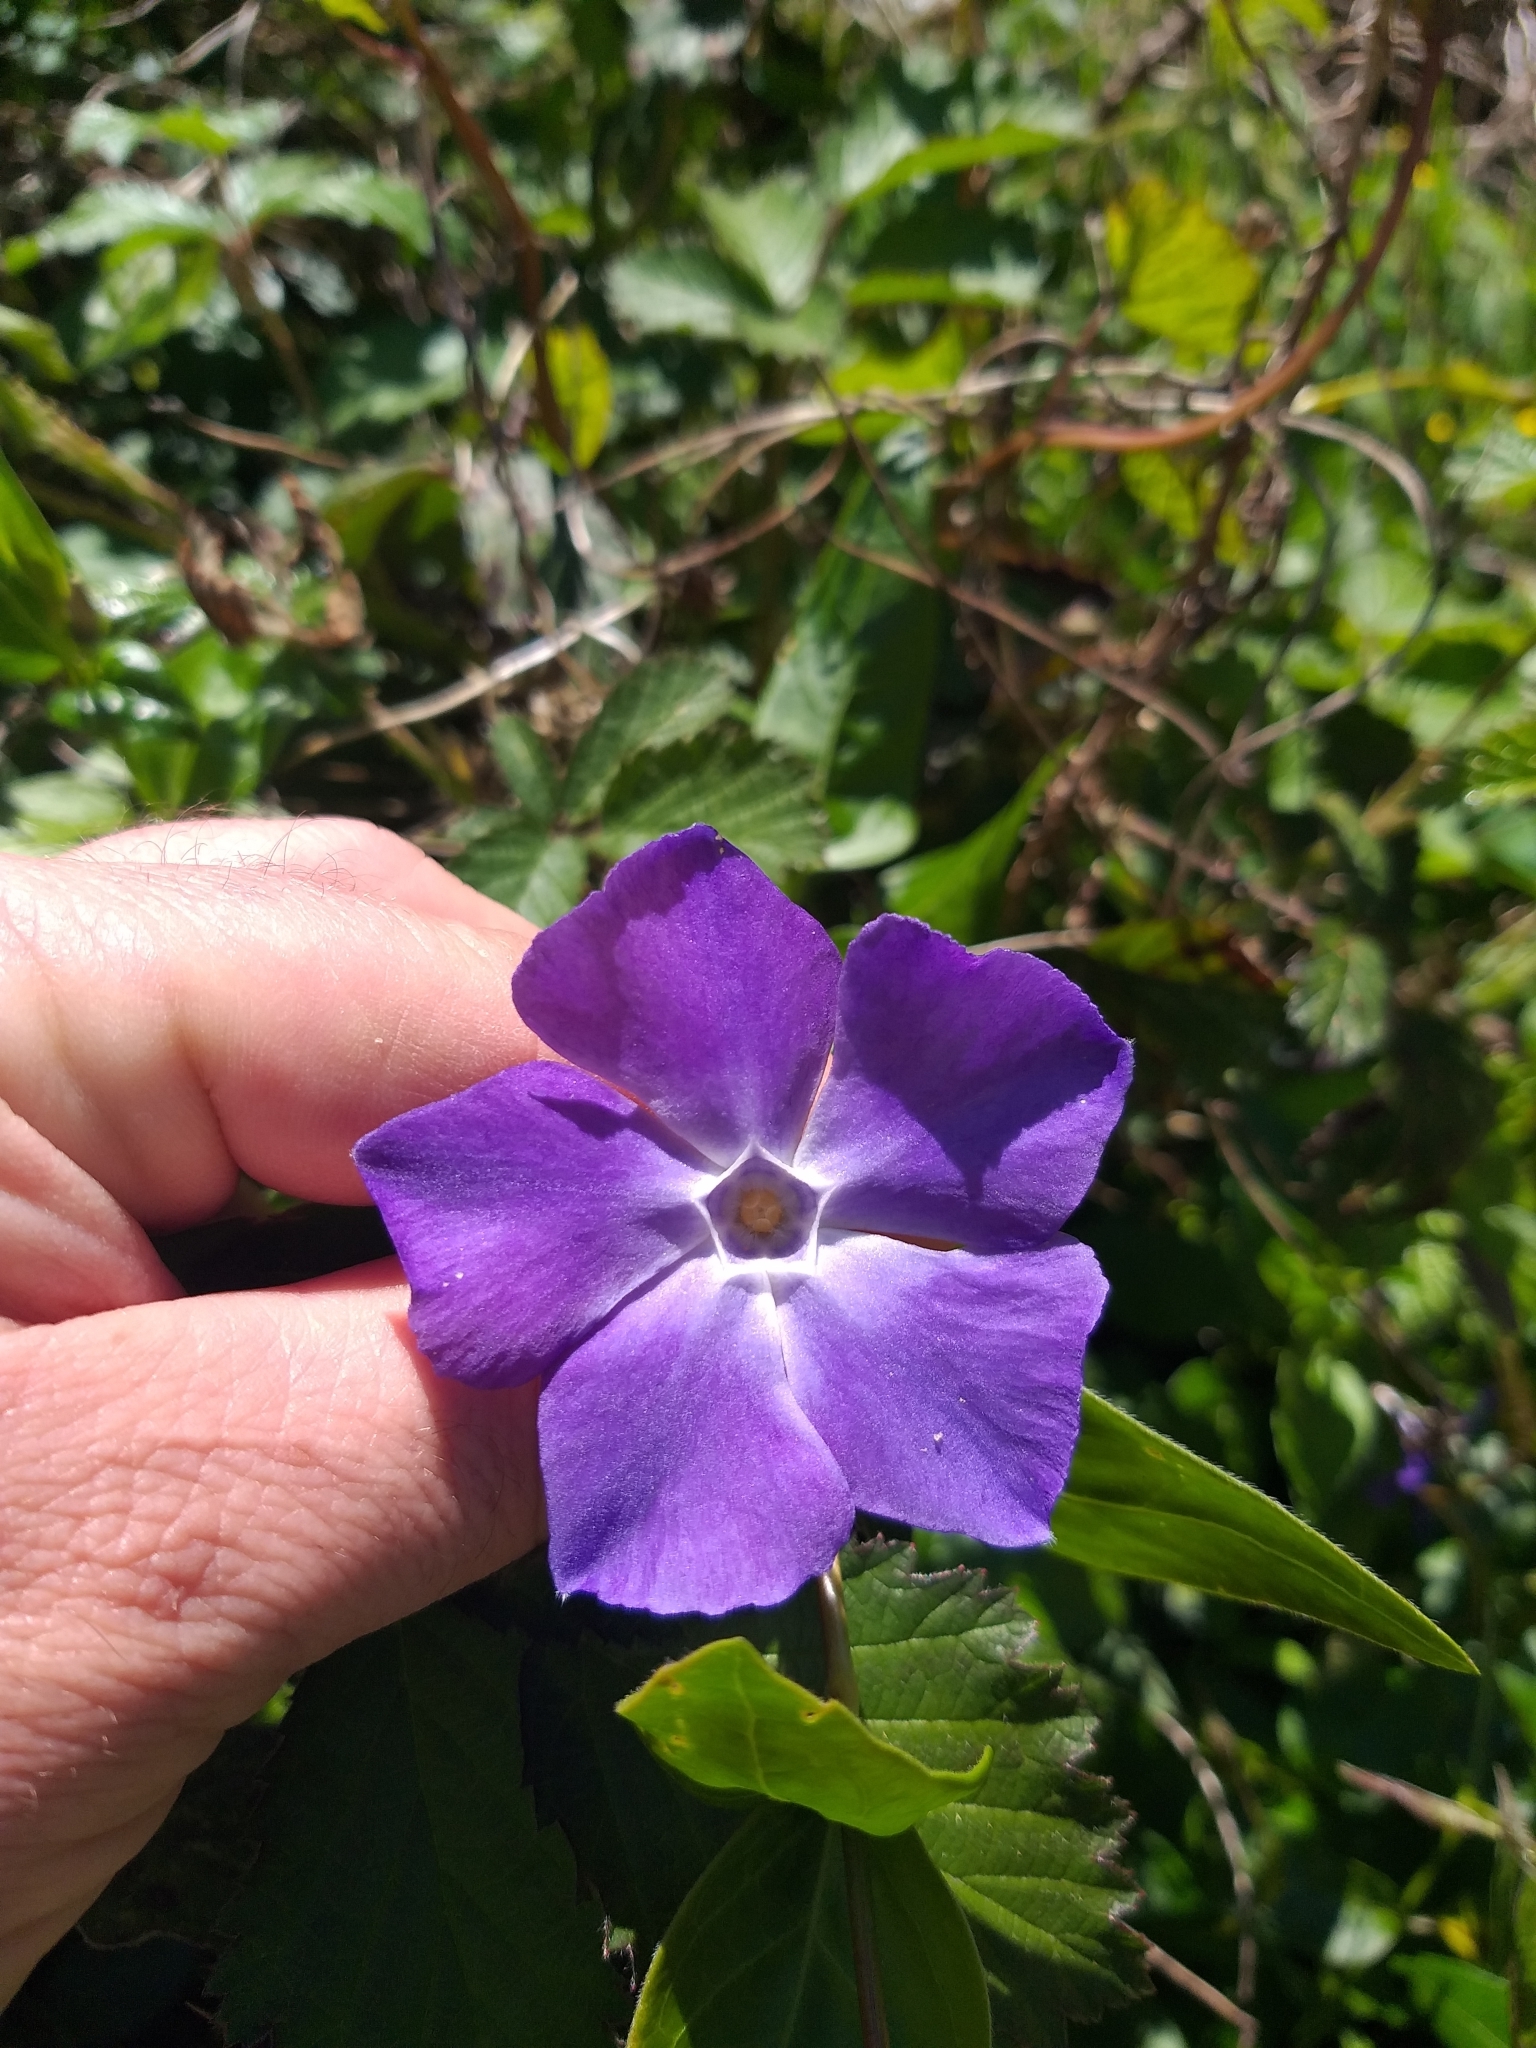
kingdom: Plantae
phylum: Tracheophyta
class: Magnoliopsida
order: Gentianales
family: Apocynaceae
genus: Vinca
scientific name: Vinca major
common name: Greater periwinkle
